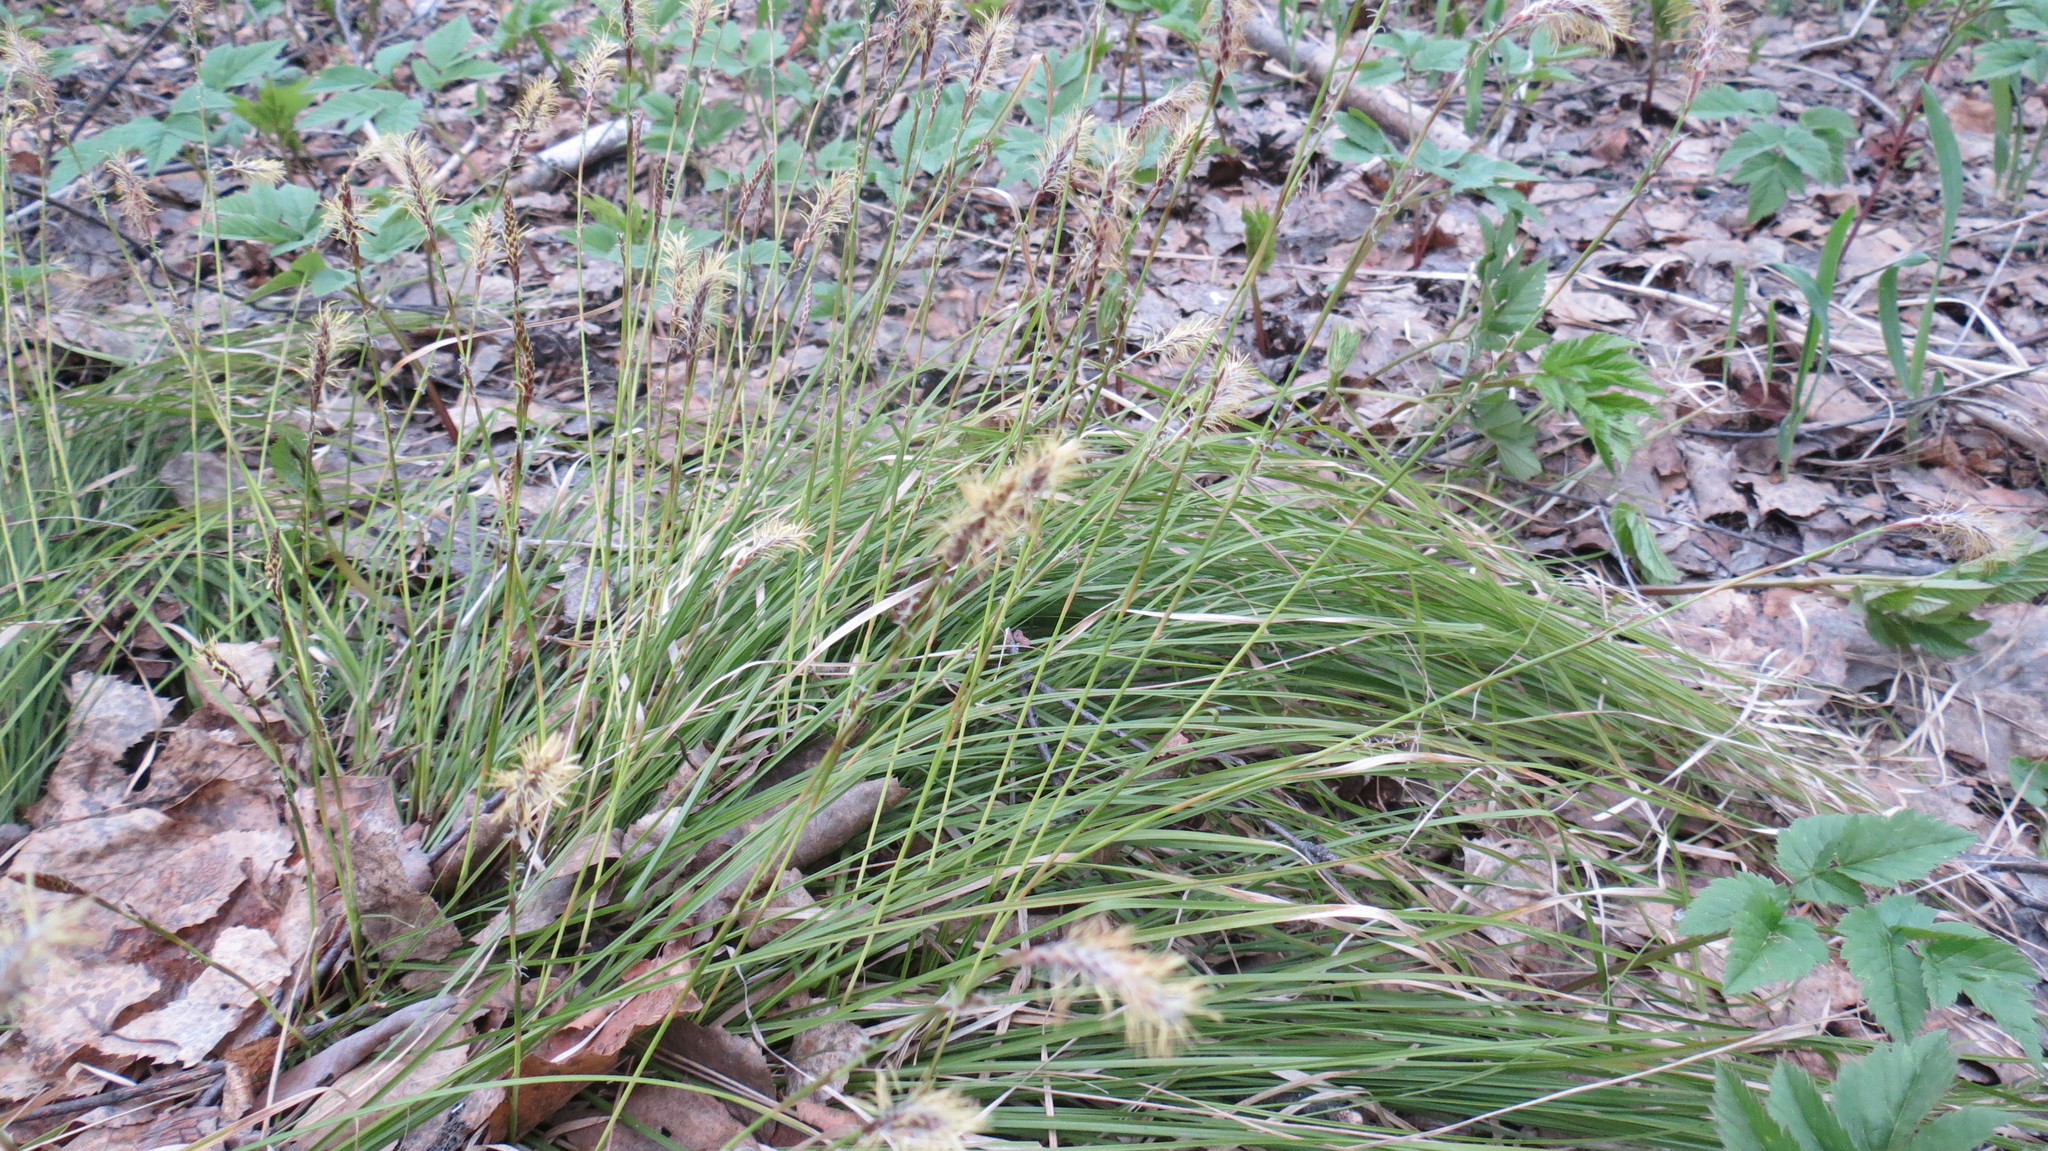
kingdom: Plantae
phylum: Tracheophyta
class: Liliopsida
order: Poales
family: Cyperaceae
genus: Carex
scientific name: Carex pediformis
